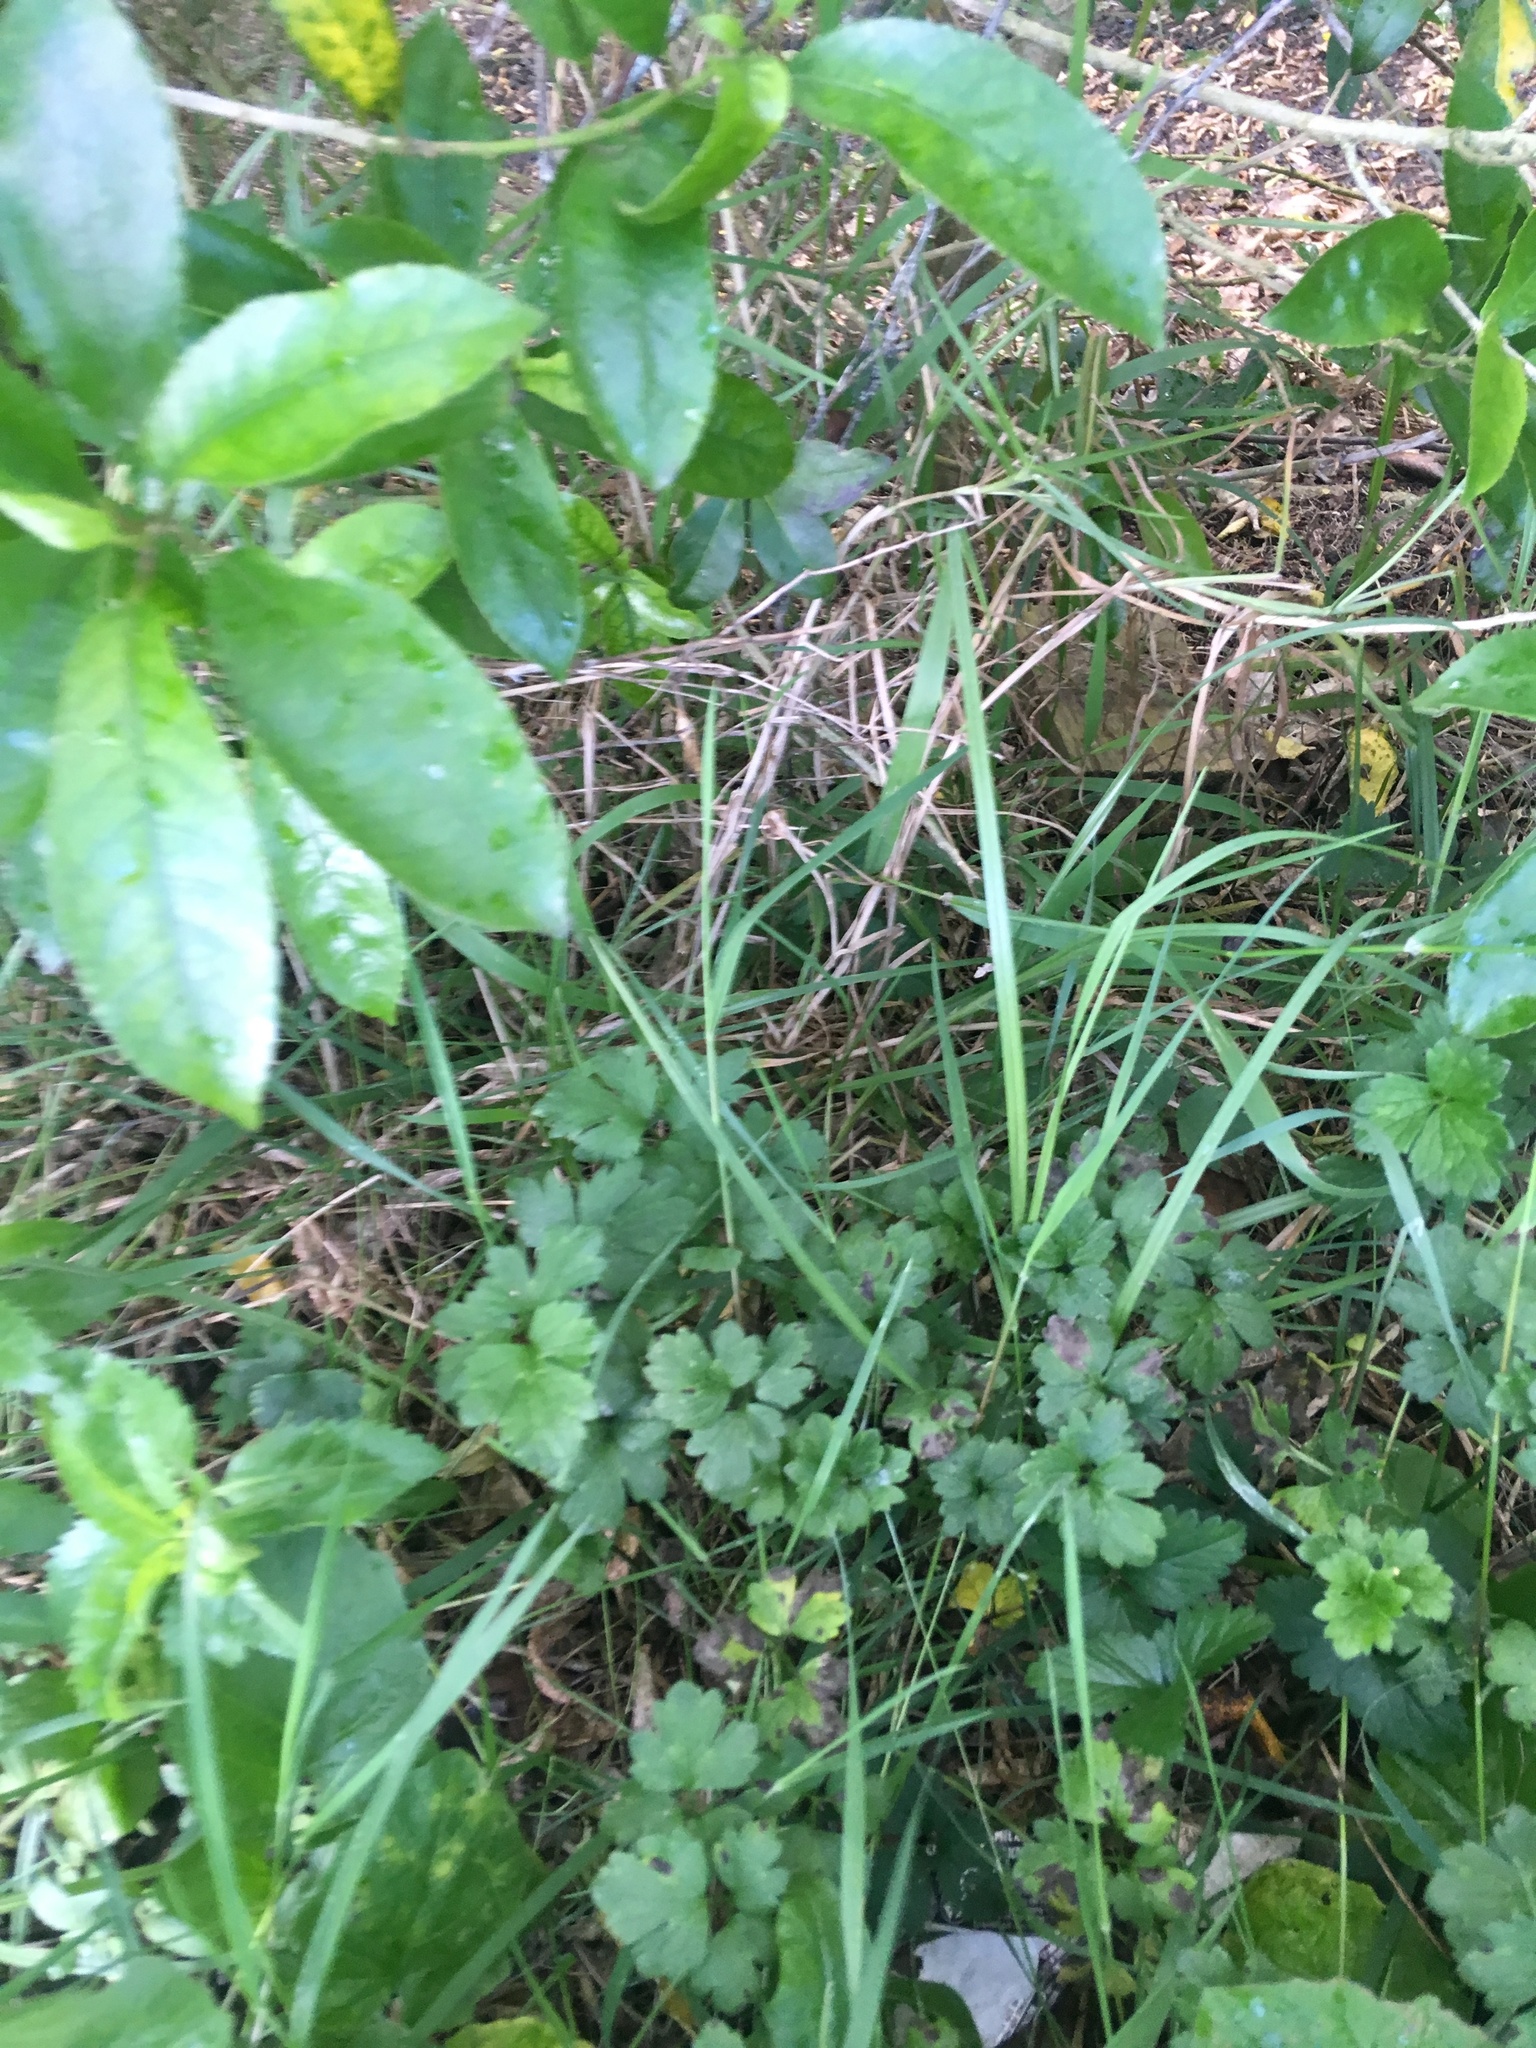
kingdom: Plantae
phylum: Tracheophyta
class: Magnoliopsida
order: Ranunculales
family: Ranunculaceae
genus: Ranunculus
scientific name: Ranunculus repens
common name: Creeping buttercup
